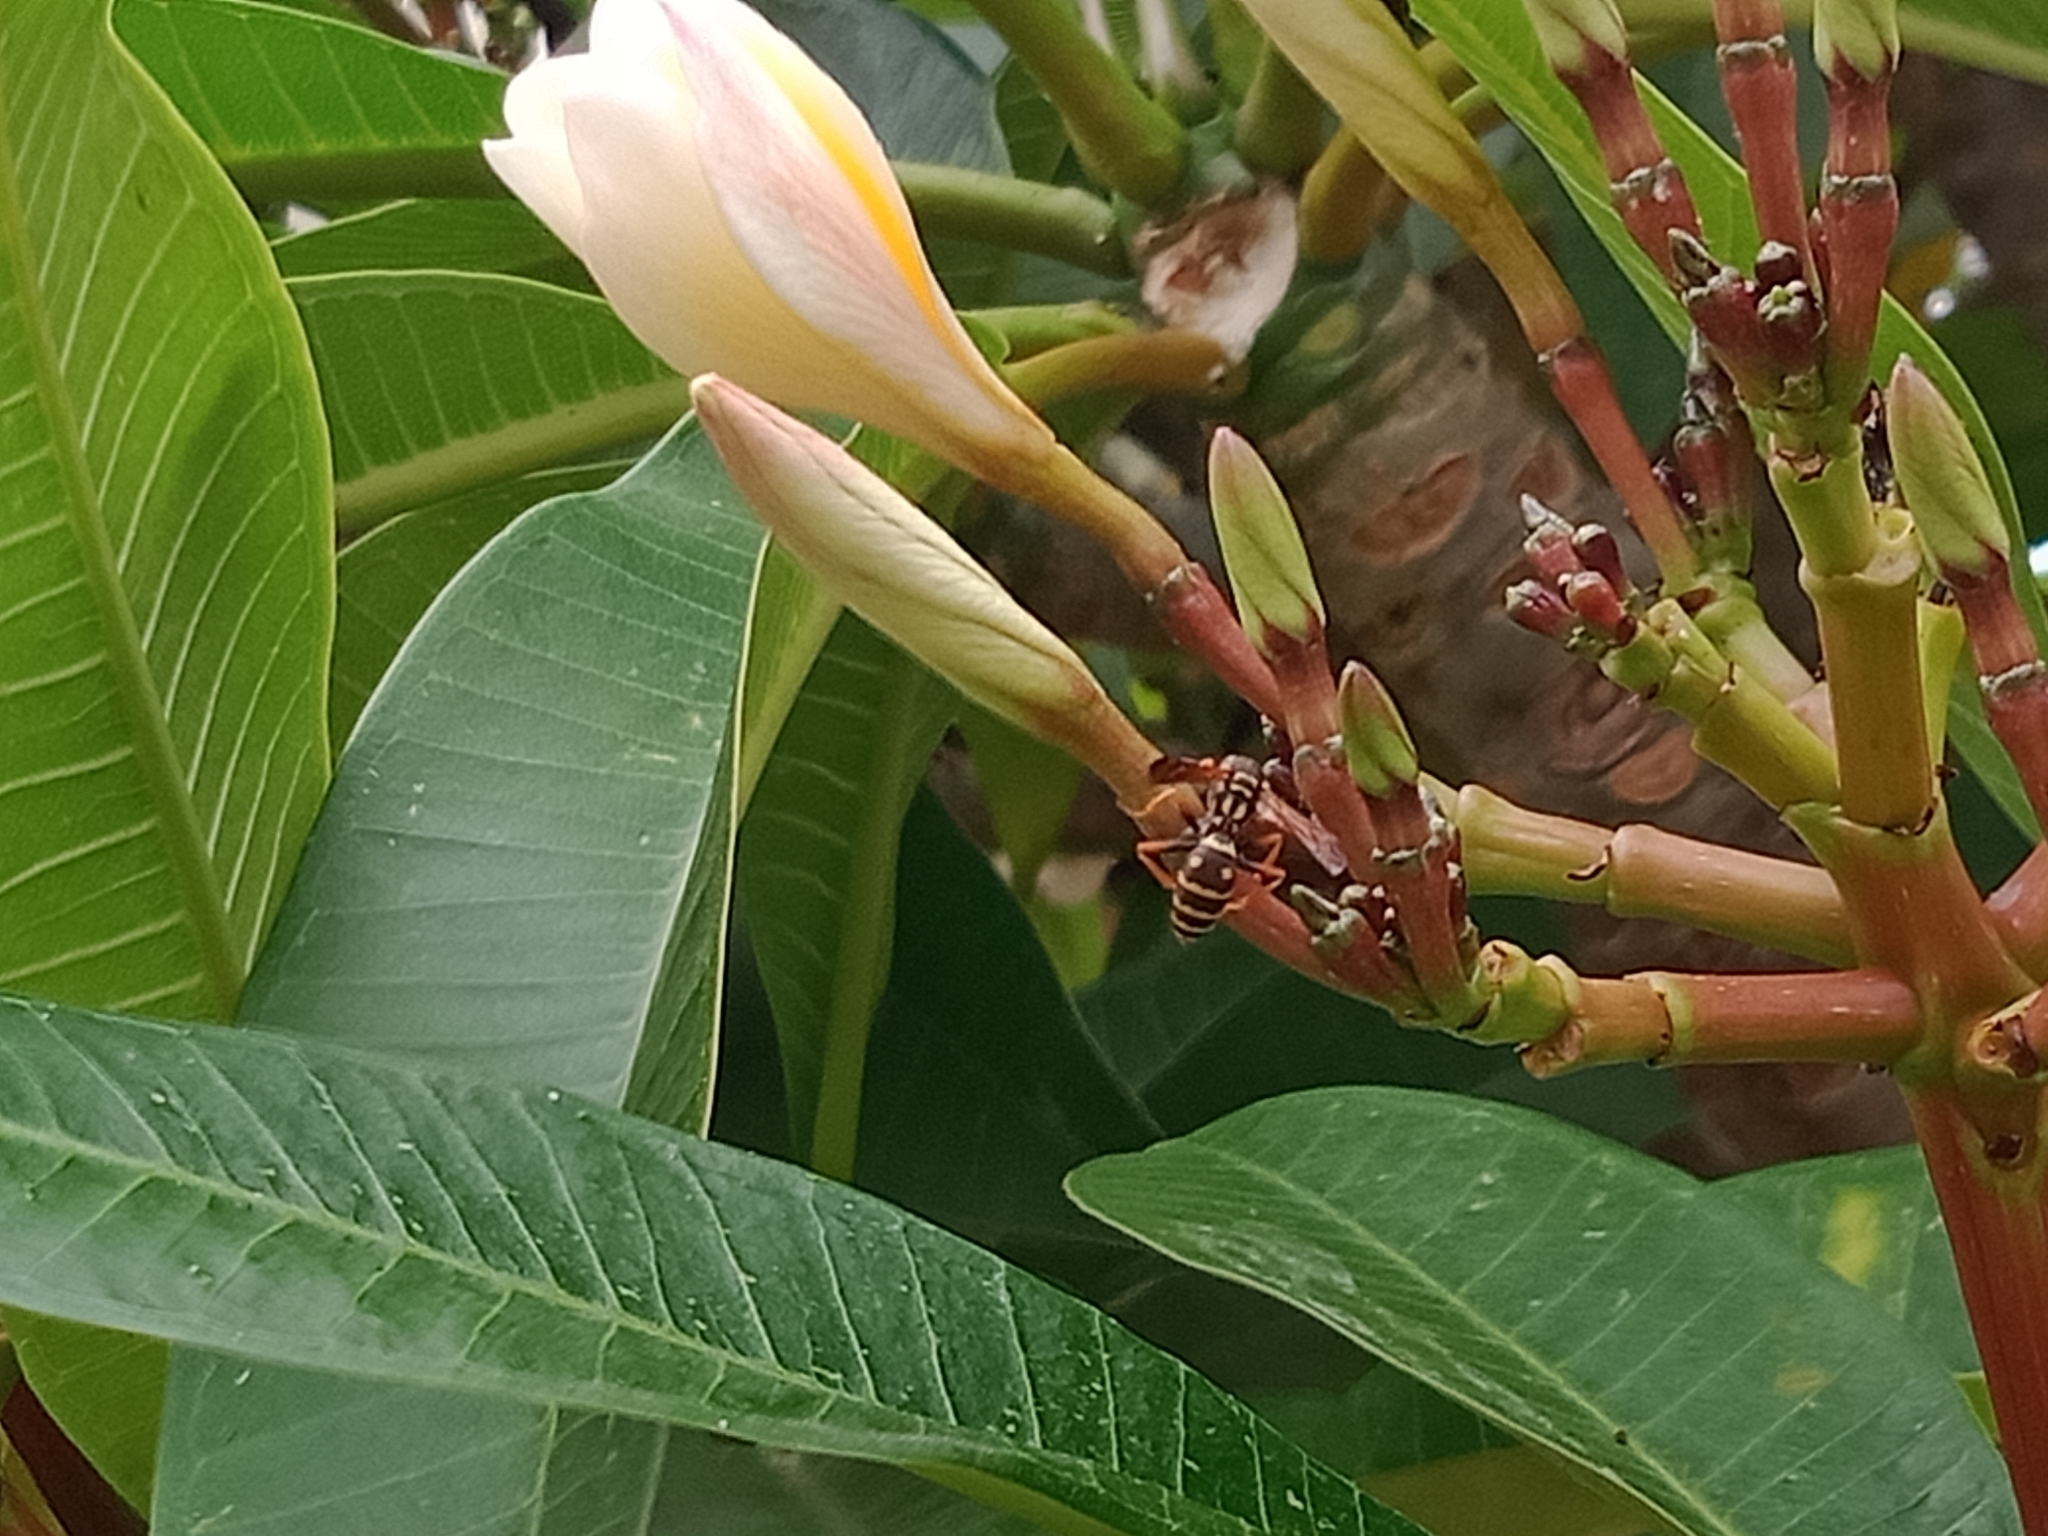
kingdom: Animalia
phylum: Arthropoda
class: Insecta
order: Hymenoptera
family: Eumenidae
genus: Polistes
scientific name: Polistes chinensis
